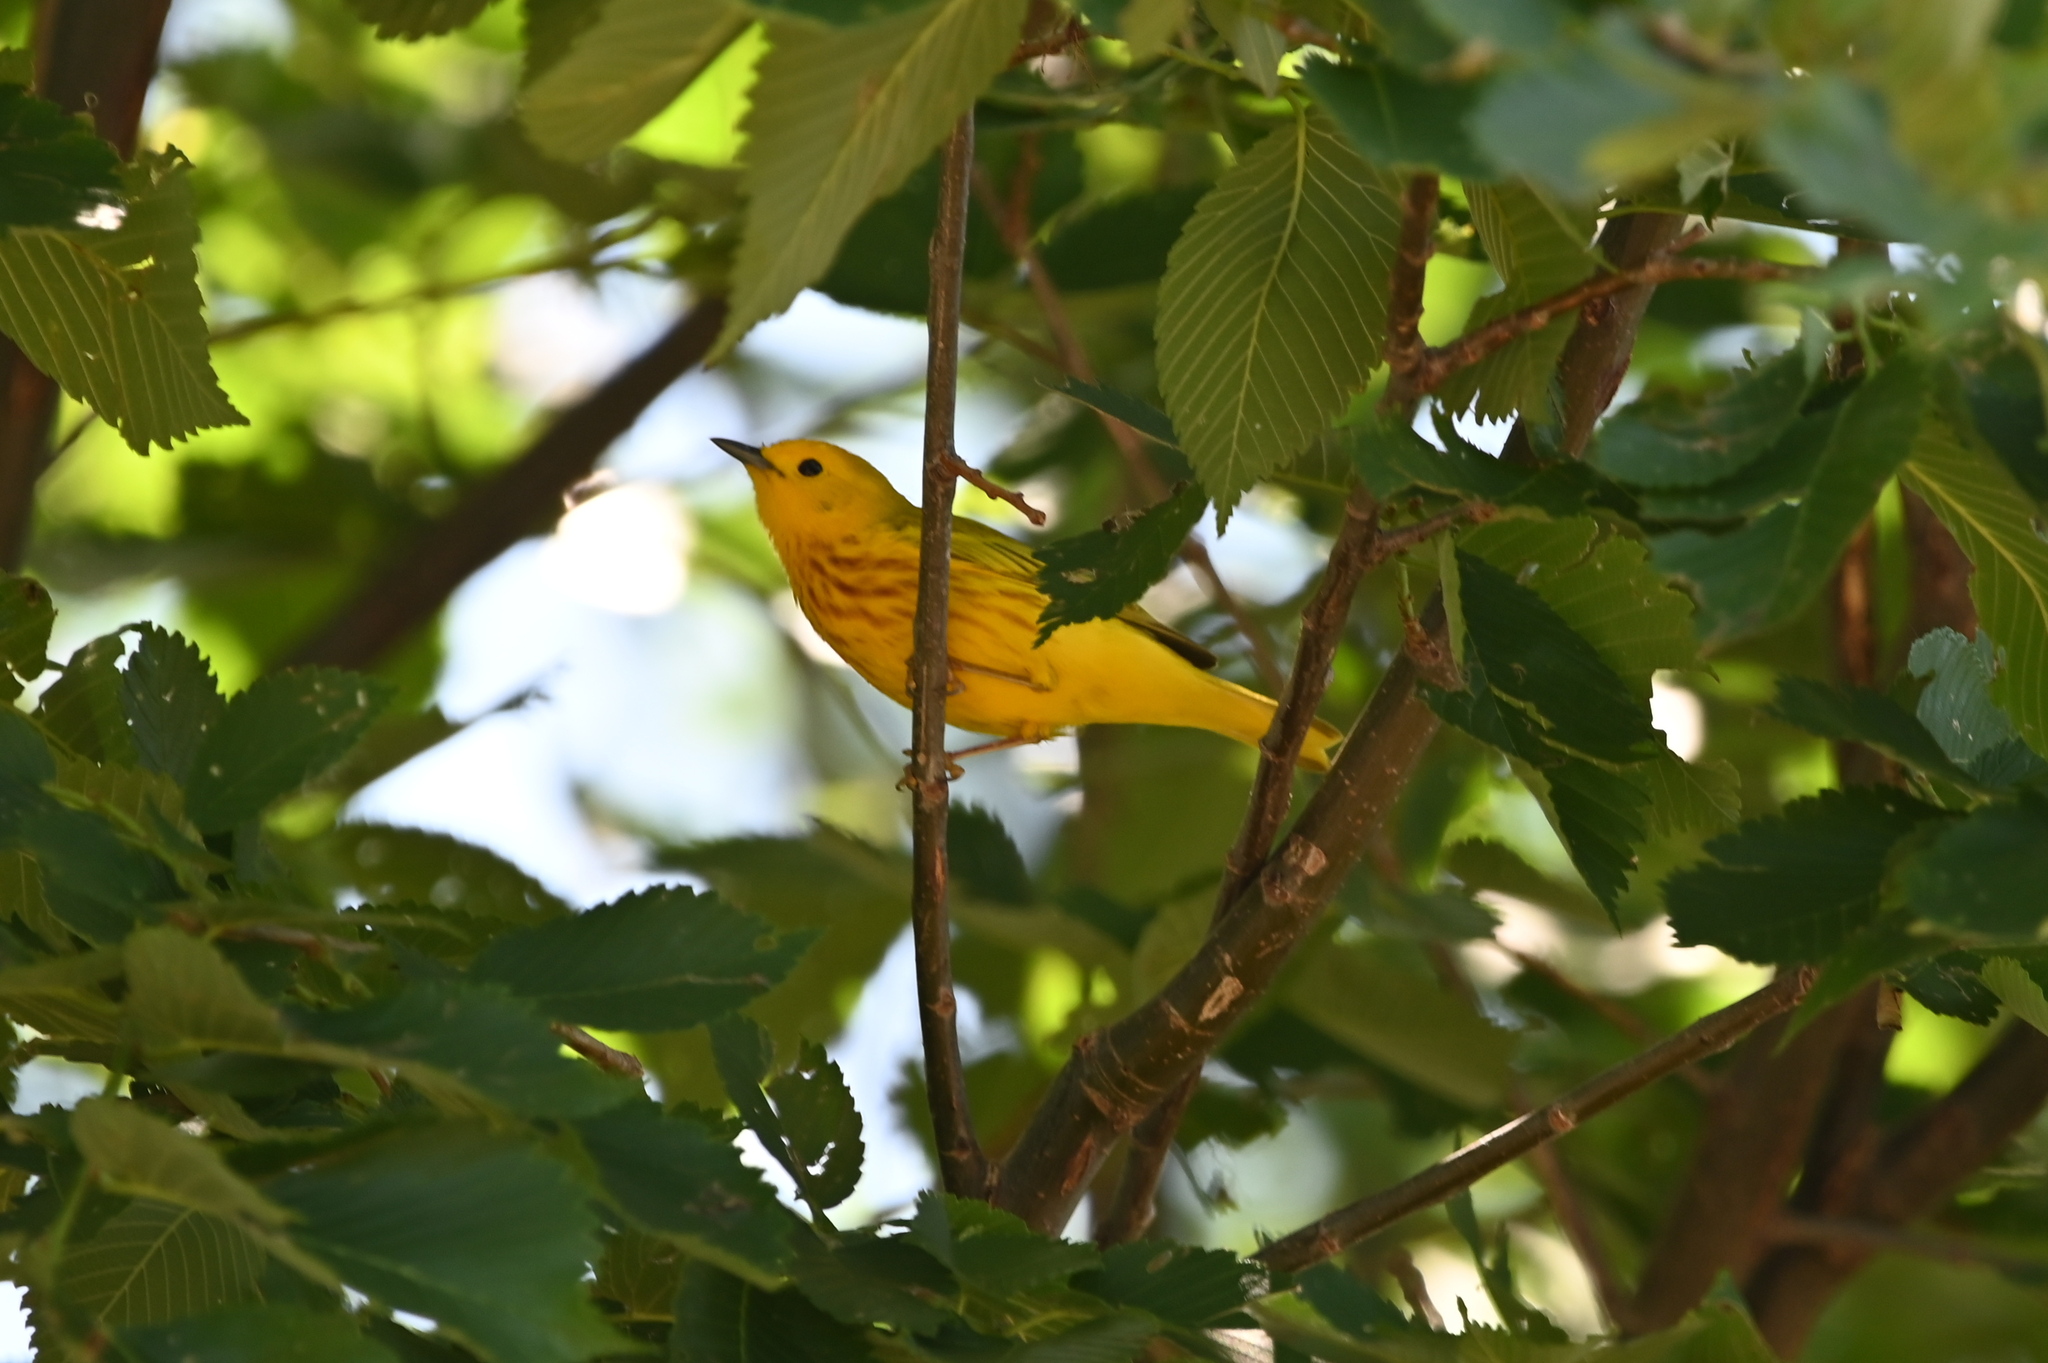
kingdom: Animalia
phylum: Chordata
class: Aves
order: Passeriformes
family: Parulidae
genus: Setophaga
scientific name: Setophaga petechia
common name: Yellow warbler
